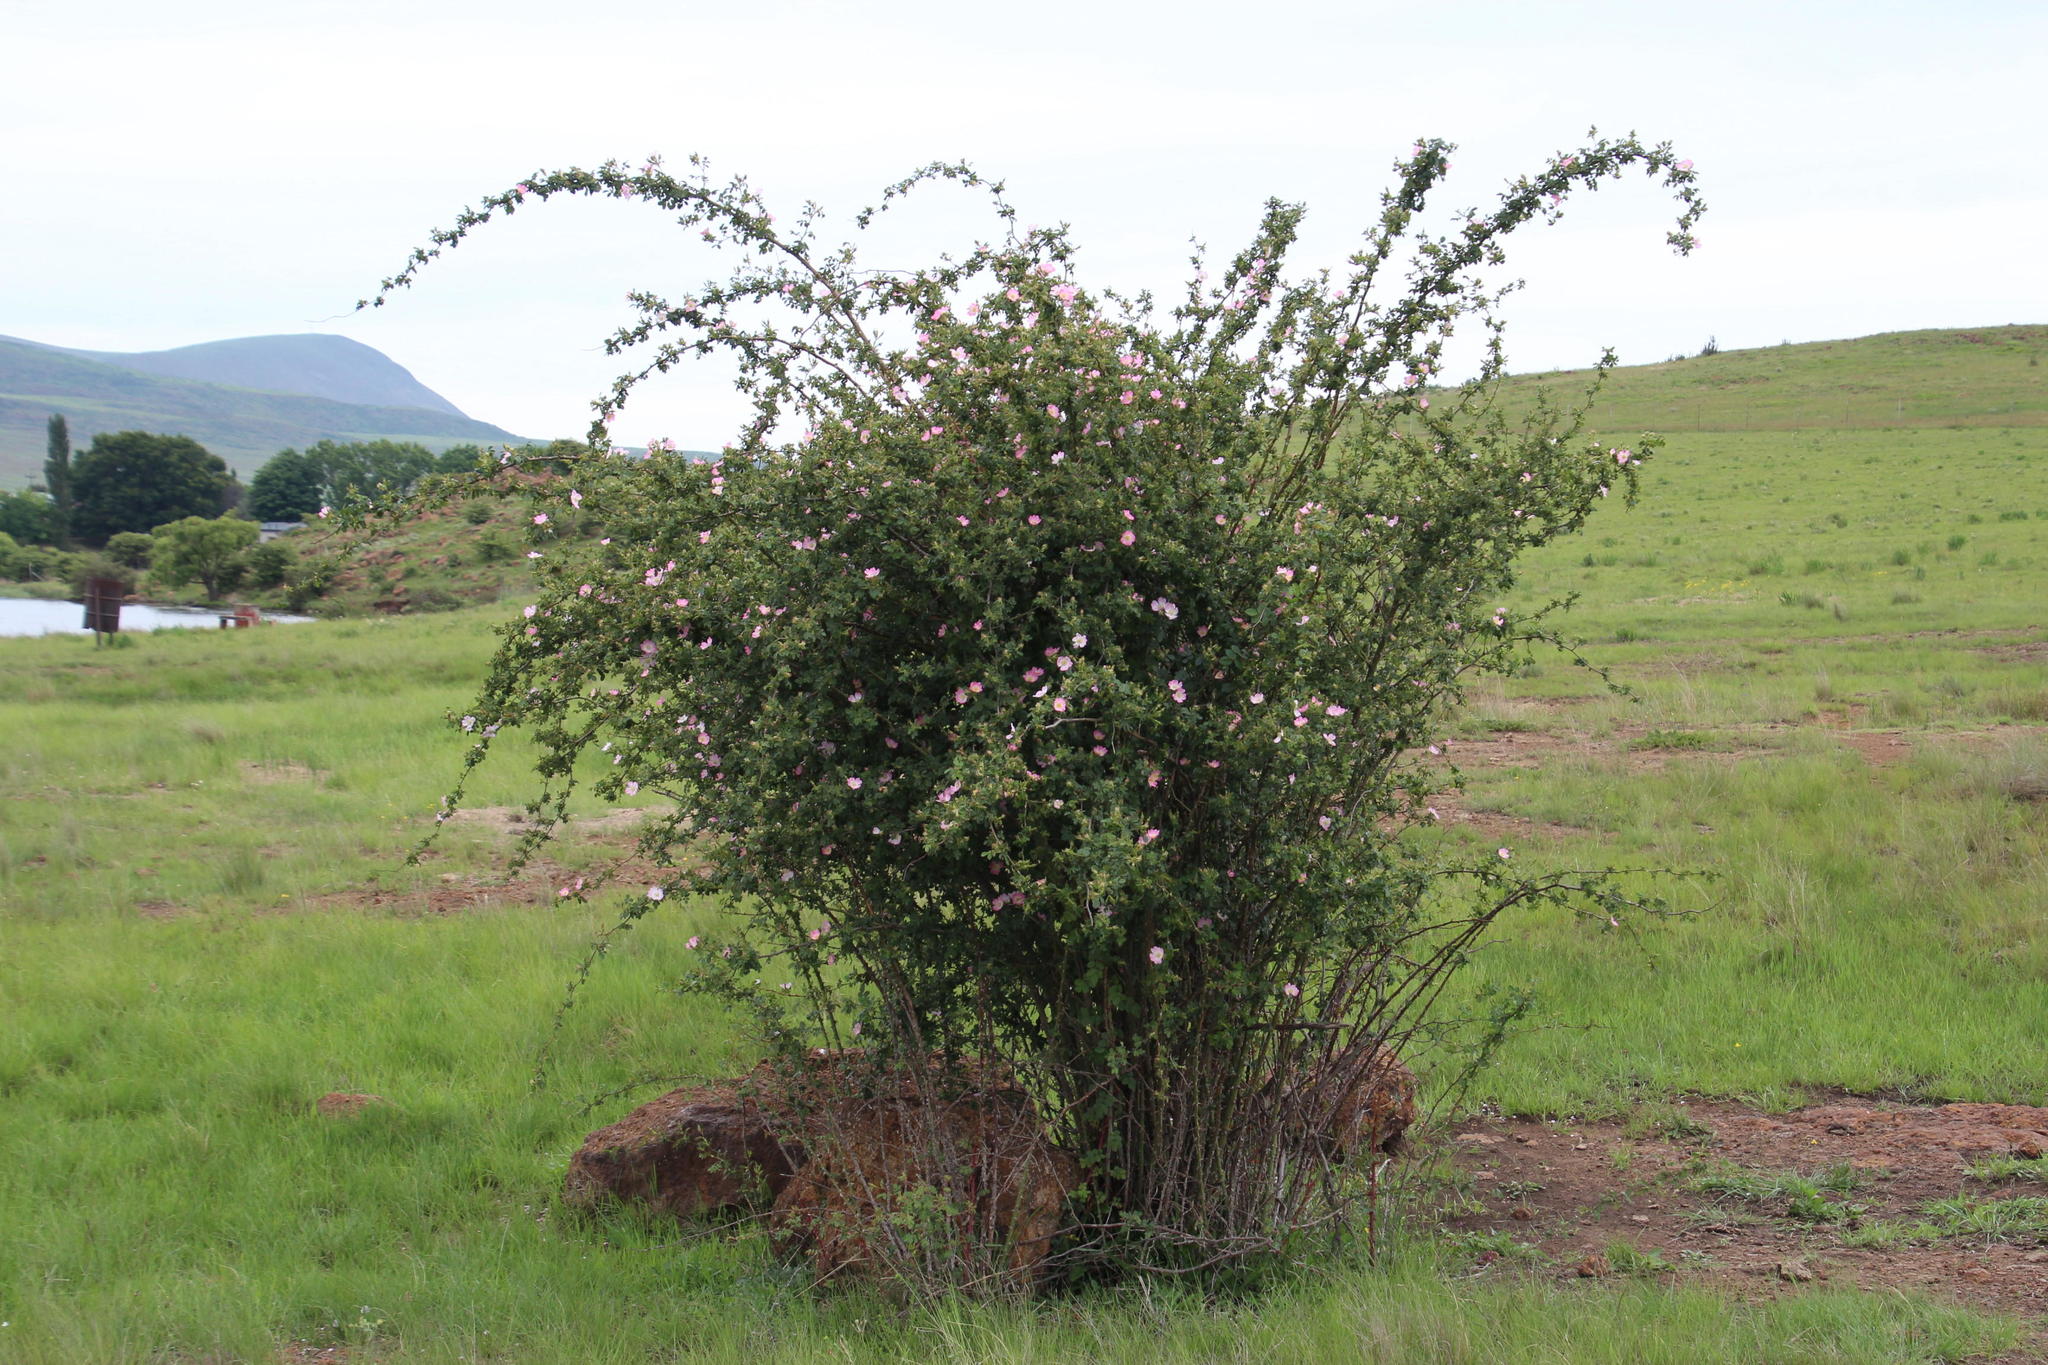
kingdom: Plantae
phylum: Tracheophyta
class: Magnoliopsida
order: Rosales
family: Rosaceae
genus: Rosa
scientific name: Rosa rubiginosa
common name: Sweet-briar
